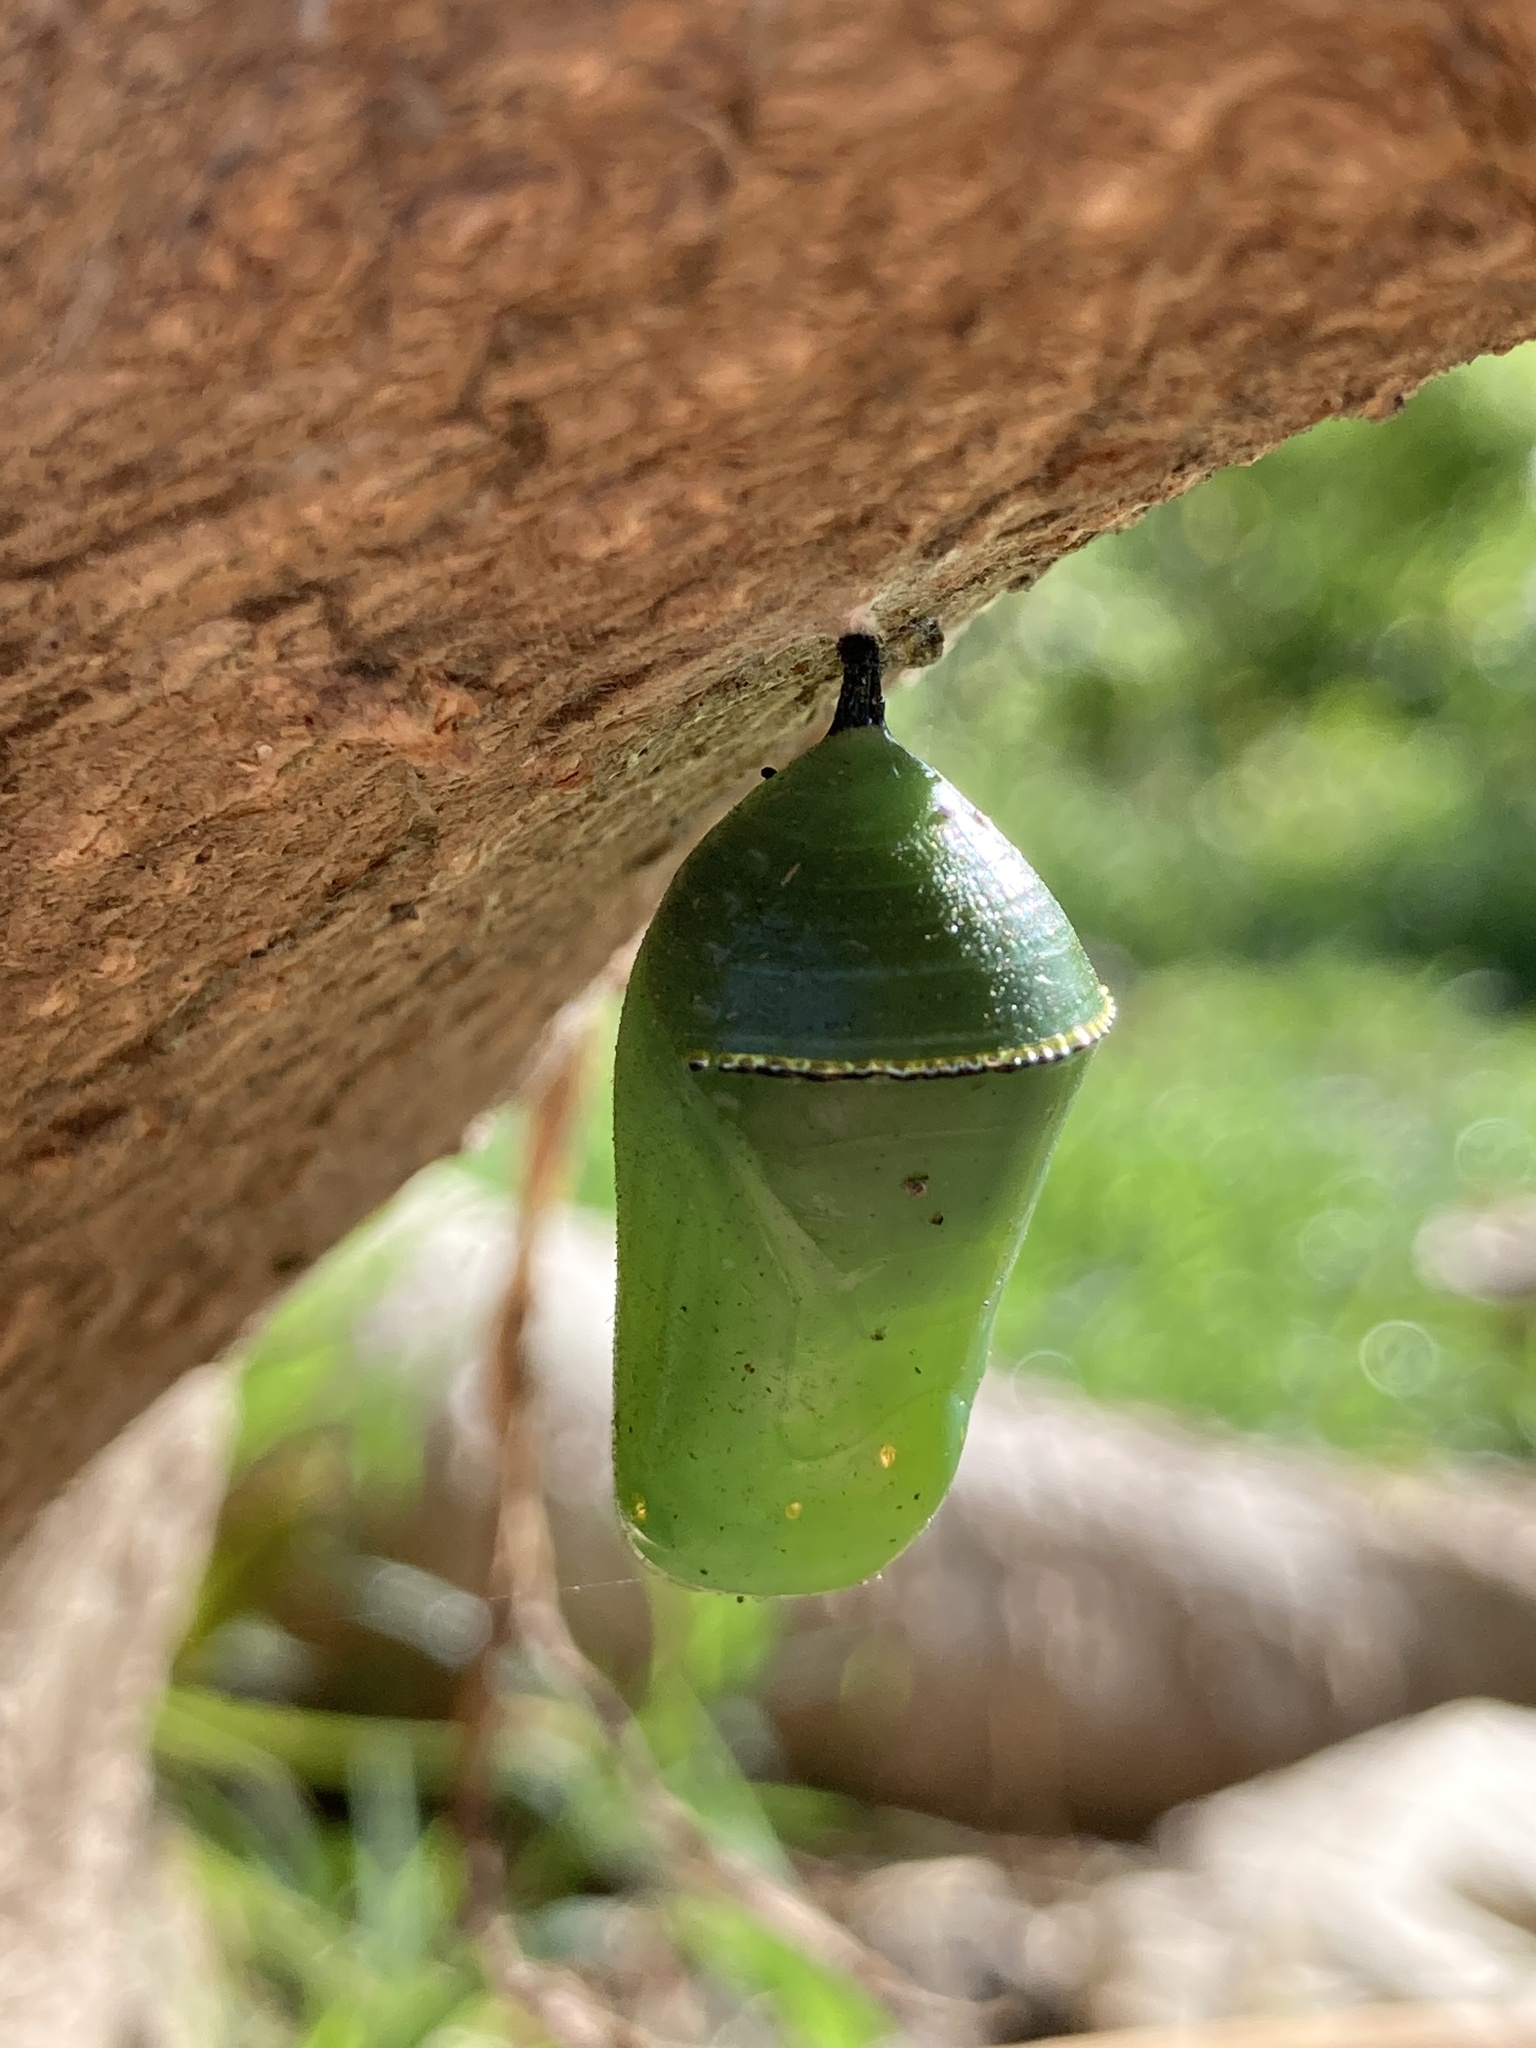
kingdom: Animalia
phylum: Arthropoda
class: Insecta
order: Lepidoptera
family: Nymphalidae
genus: Danaus
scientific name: Danaus erippus
